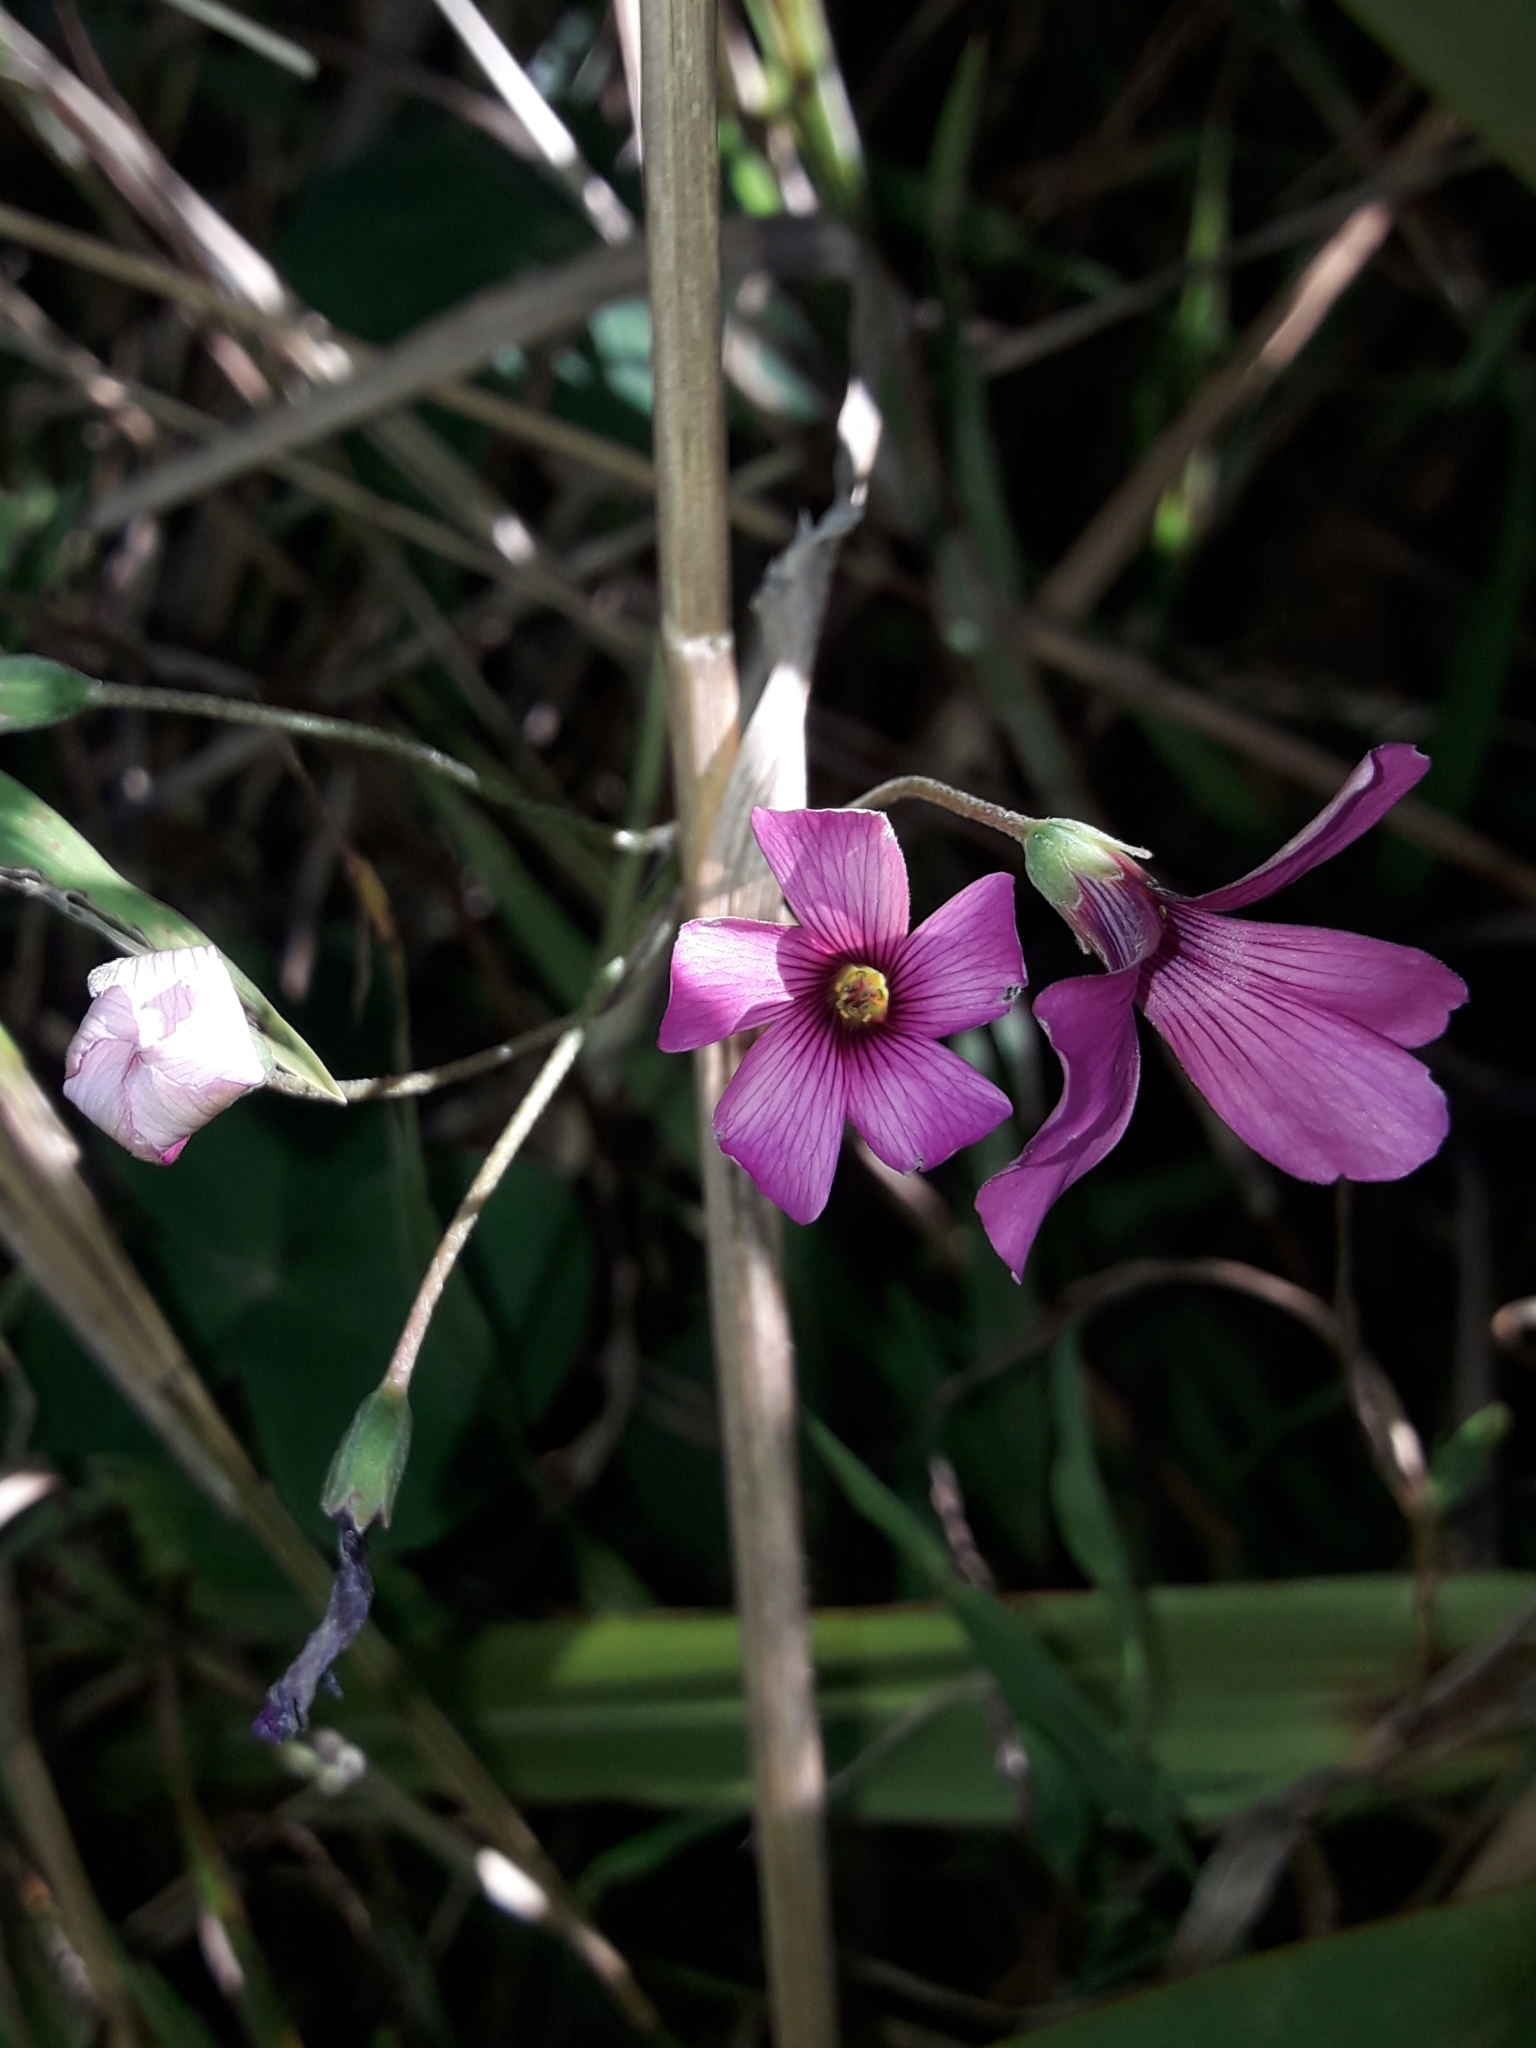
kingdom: Plantae
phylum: Tracheophyta
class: Magnoliopsida
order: Oxalidales
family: Oxalidaceae
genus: Oxalis
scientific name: Oxalis articulata
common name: Pink-sorrel
